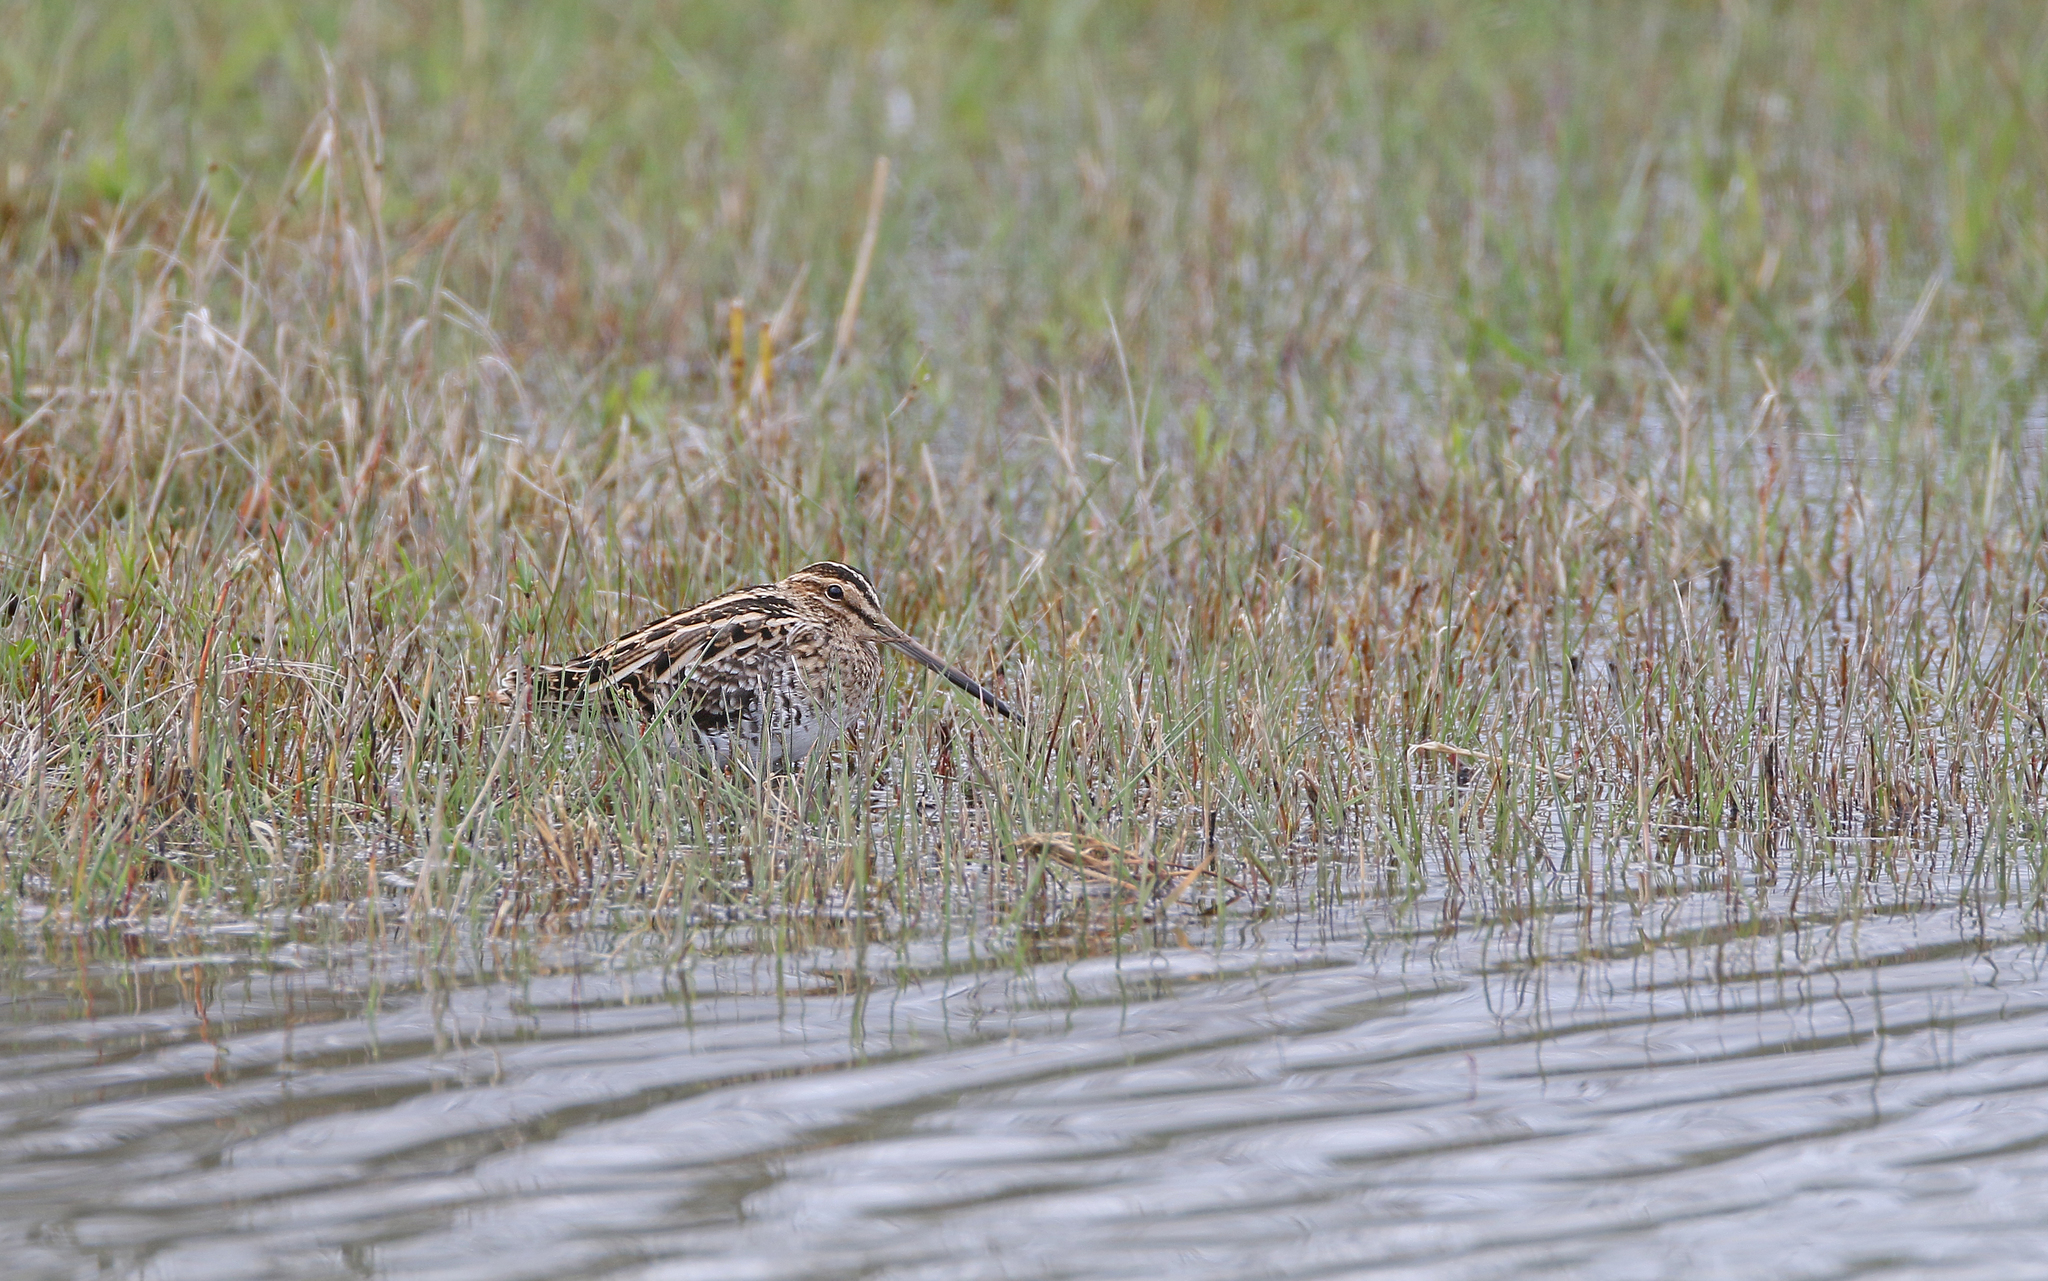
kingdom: Animalia
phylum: Chordata
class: Aves
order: Charadriiformes
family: Scolopacidae
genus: Gallinago
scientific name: Gallinago gallinago
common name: Common snipe
